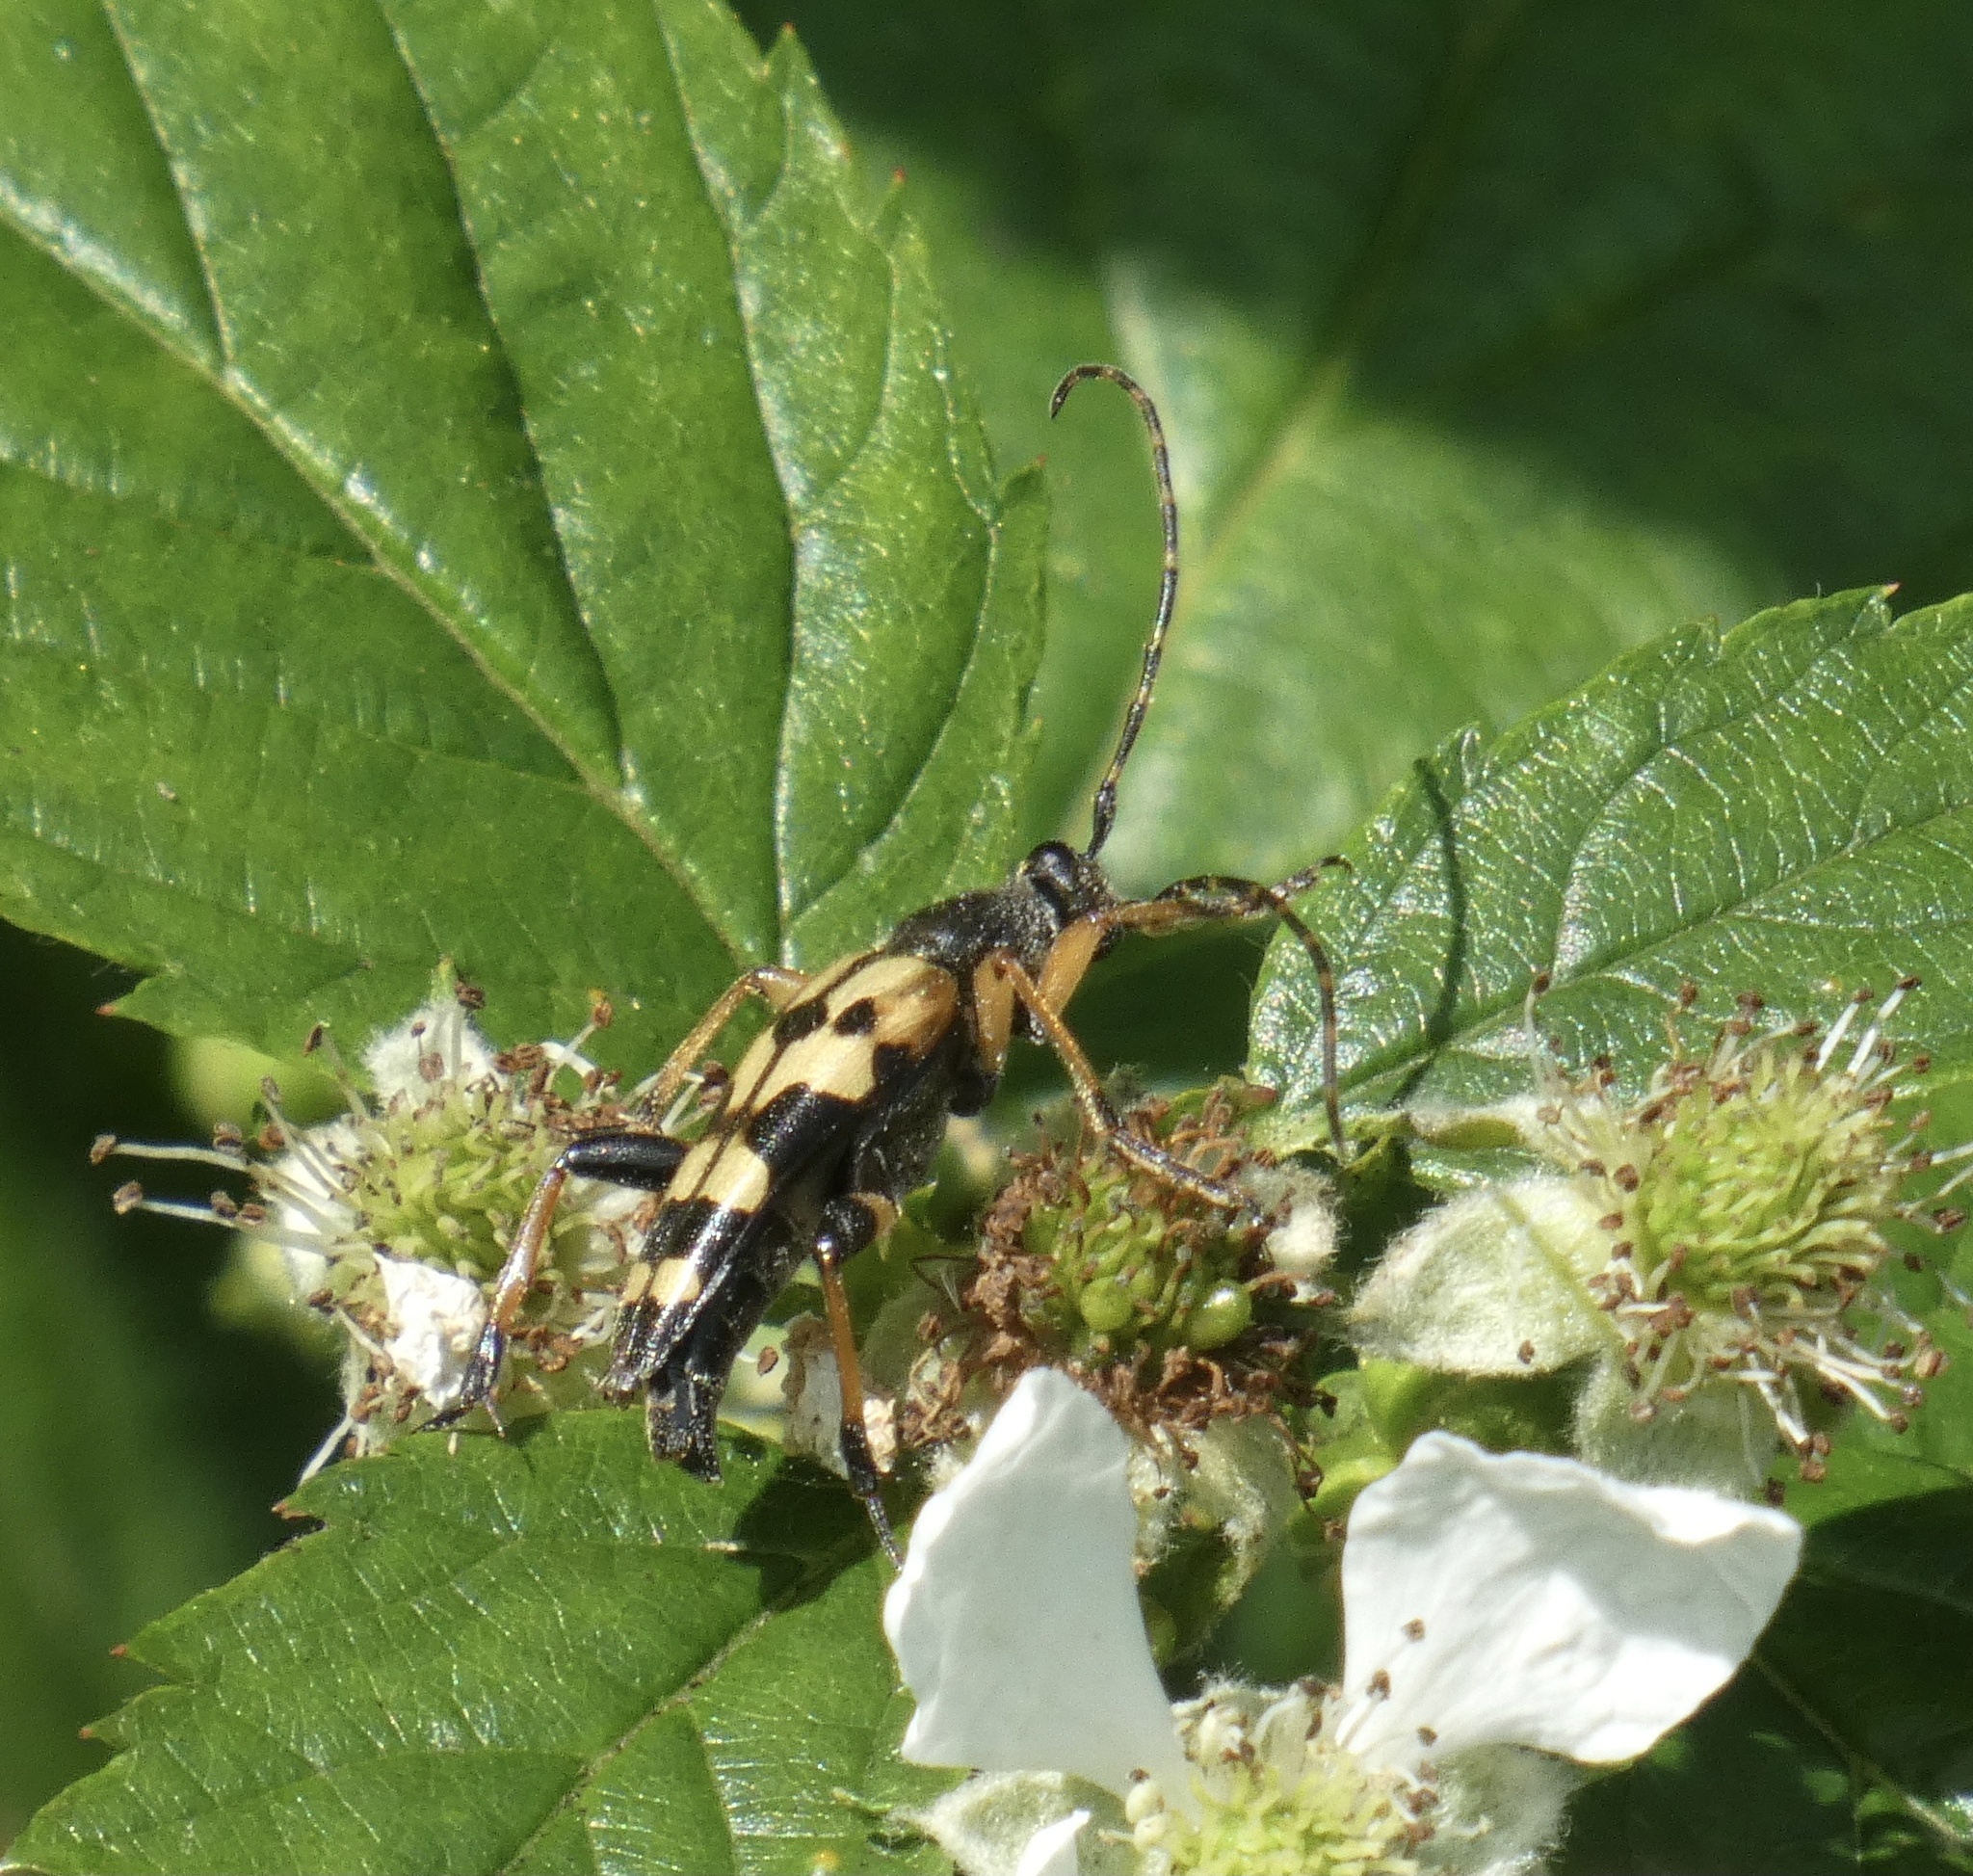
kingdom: Animalia
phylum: Arthropoda
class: Insecta
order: Coleoptera
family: Cerambycidae
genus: Rutpela
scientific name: Rutpela maculata
